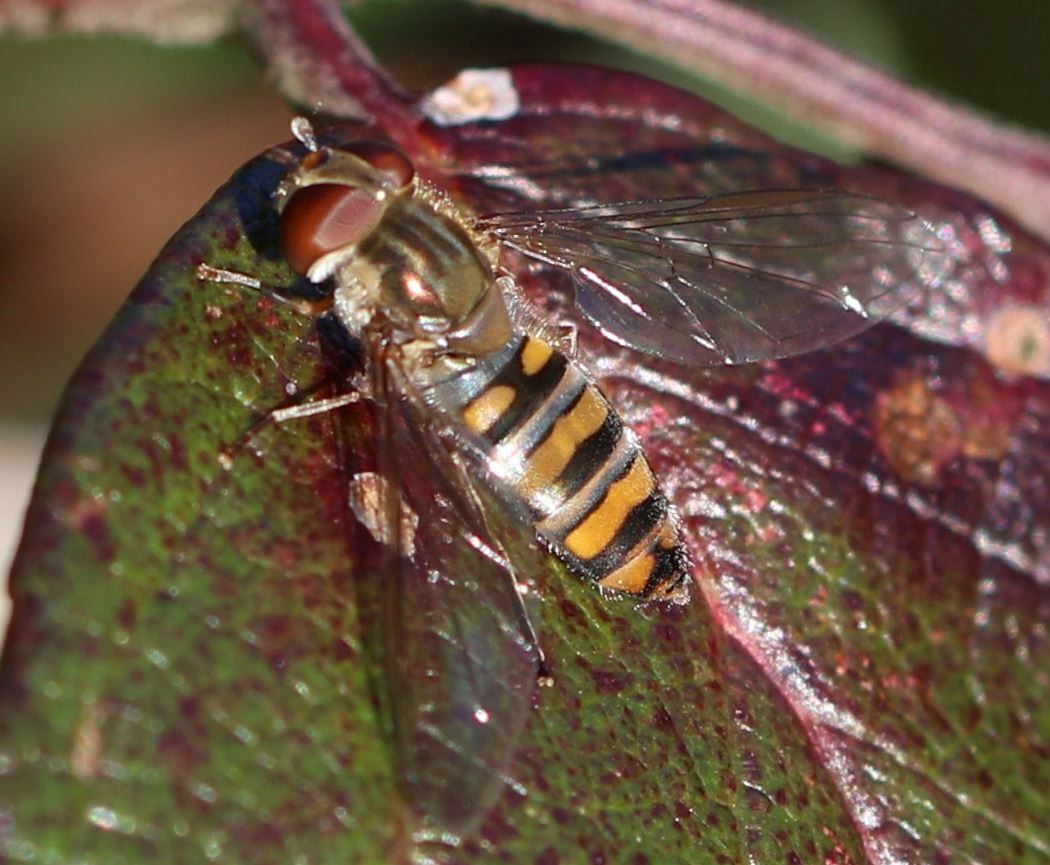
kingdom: Animalia
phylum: Arthropoda
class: Insecta
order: Diptera
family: Syrphidae
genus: Episyrphus
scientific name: Episyrphus balteatus
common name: Marmalade hoverfly
